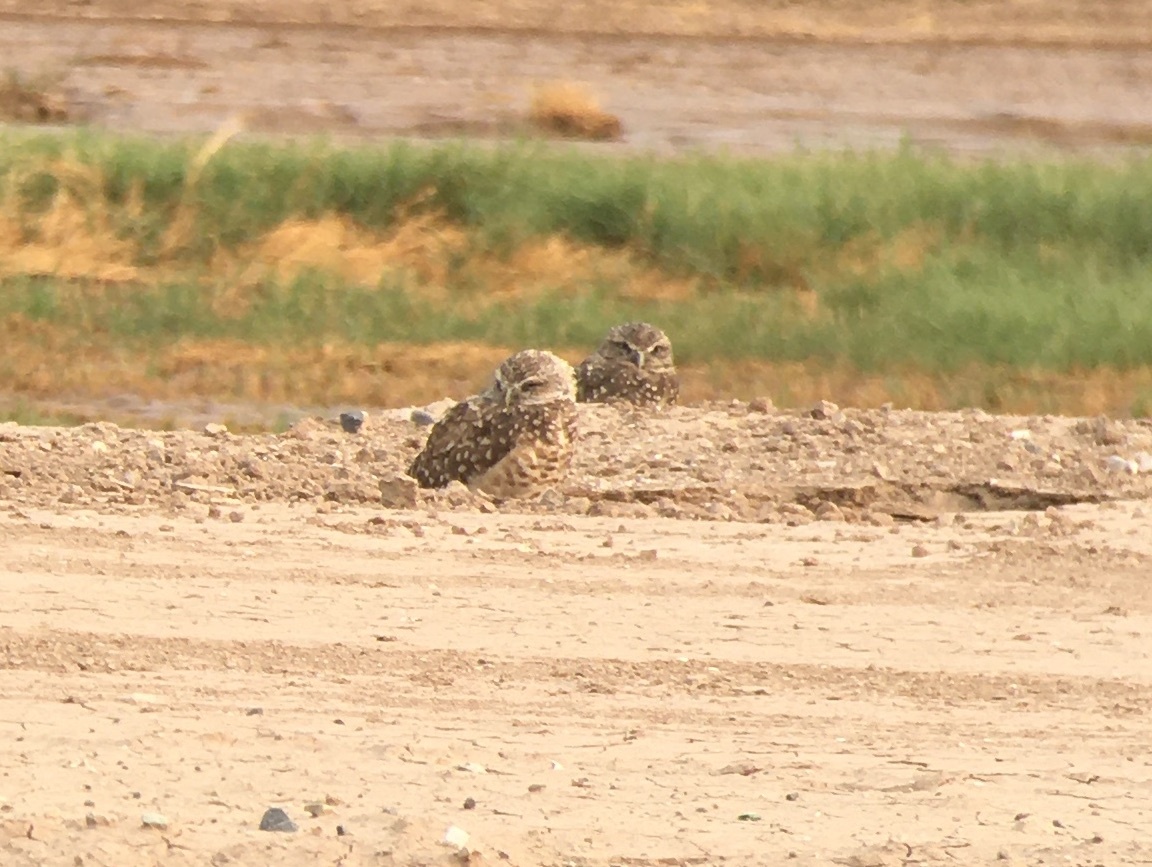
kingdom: Animalia
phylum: Chordata
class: Aves
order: Strigiformes
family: Strigidae
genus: Athene
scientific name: Athene cunicularia
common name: Burrowing owl
